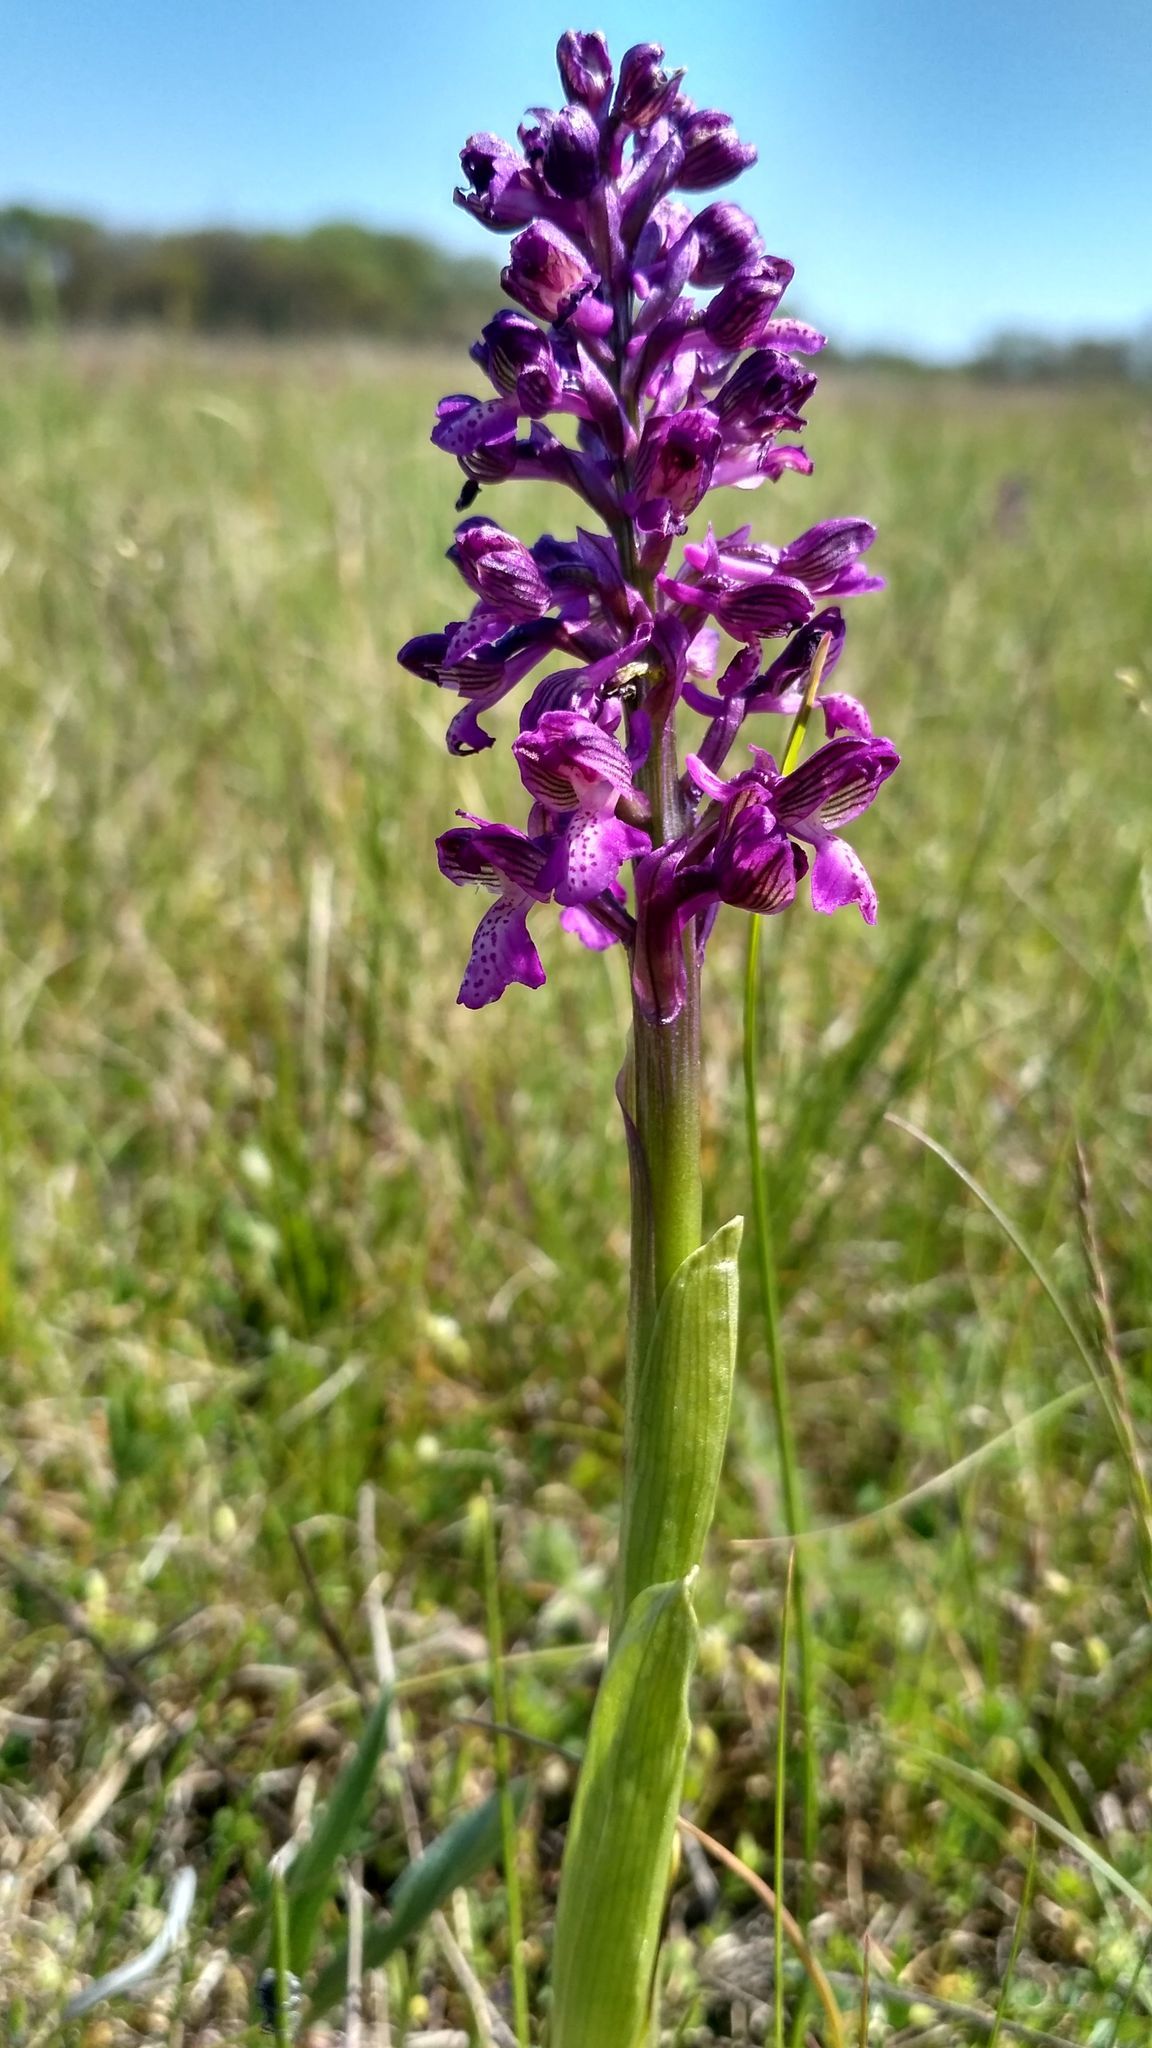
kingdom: Plantae
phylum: Tracheophyta
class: Liliopsida
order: Asparagales
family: Orchidaceae
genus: Anacamptis
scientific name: Anacamptis morio
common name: Green-winged orchid
